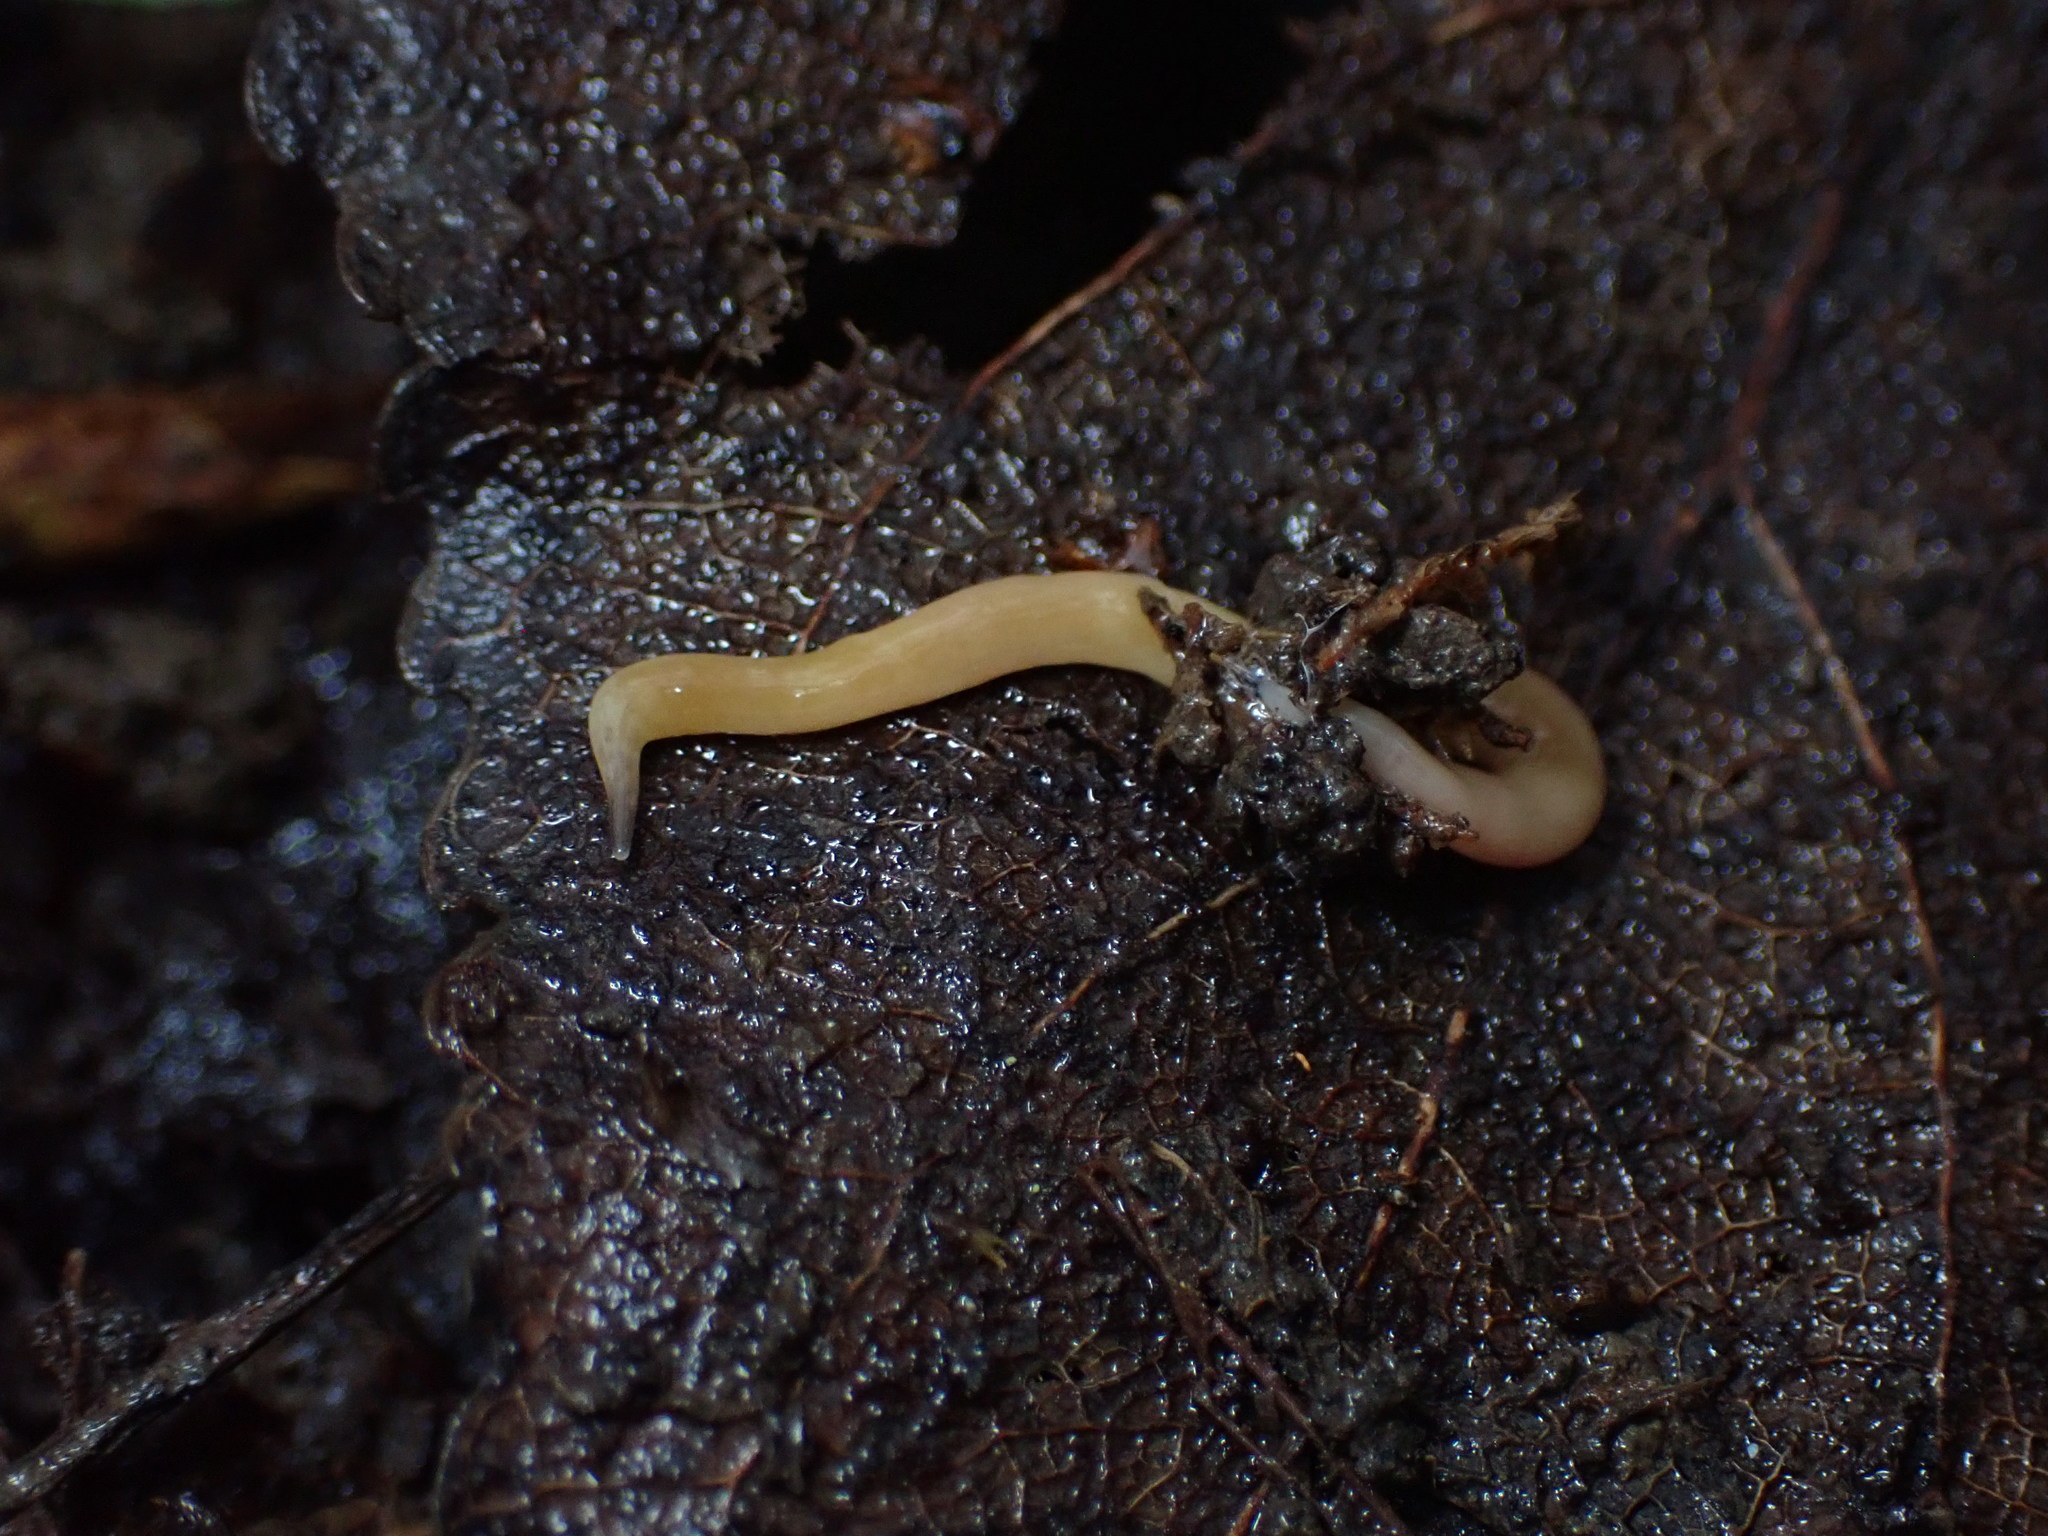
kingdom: Animalia
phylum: Platyhelminthes
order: Tricladida
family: Geoplanidae
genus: Microplana
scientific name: Microplana scharffi
